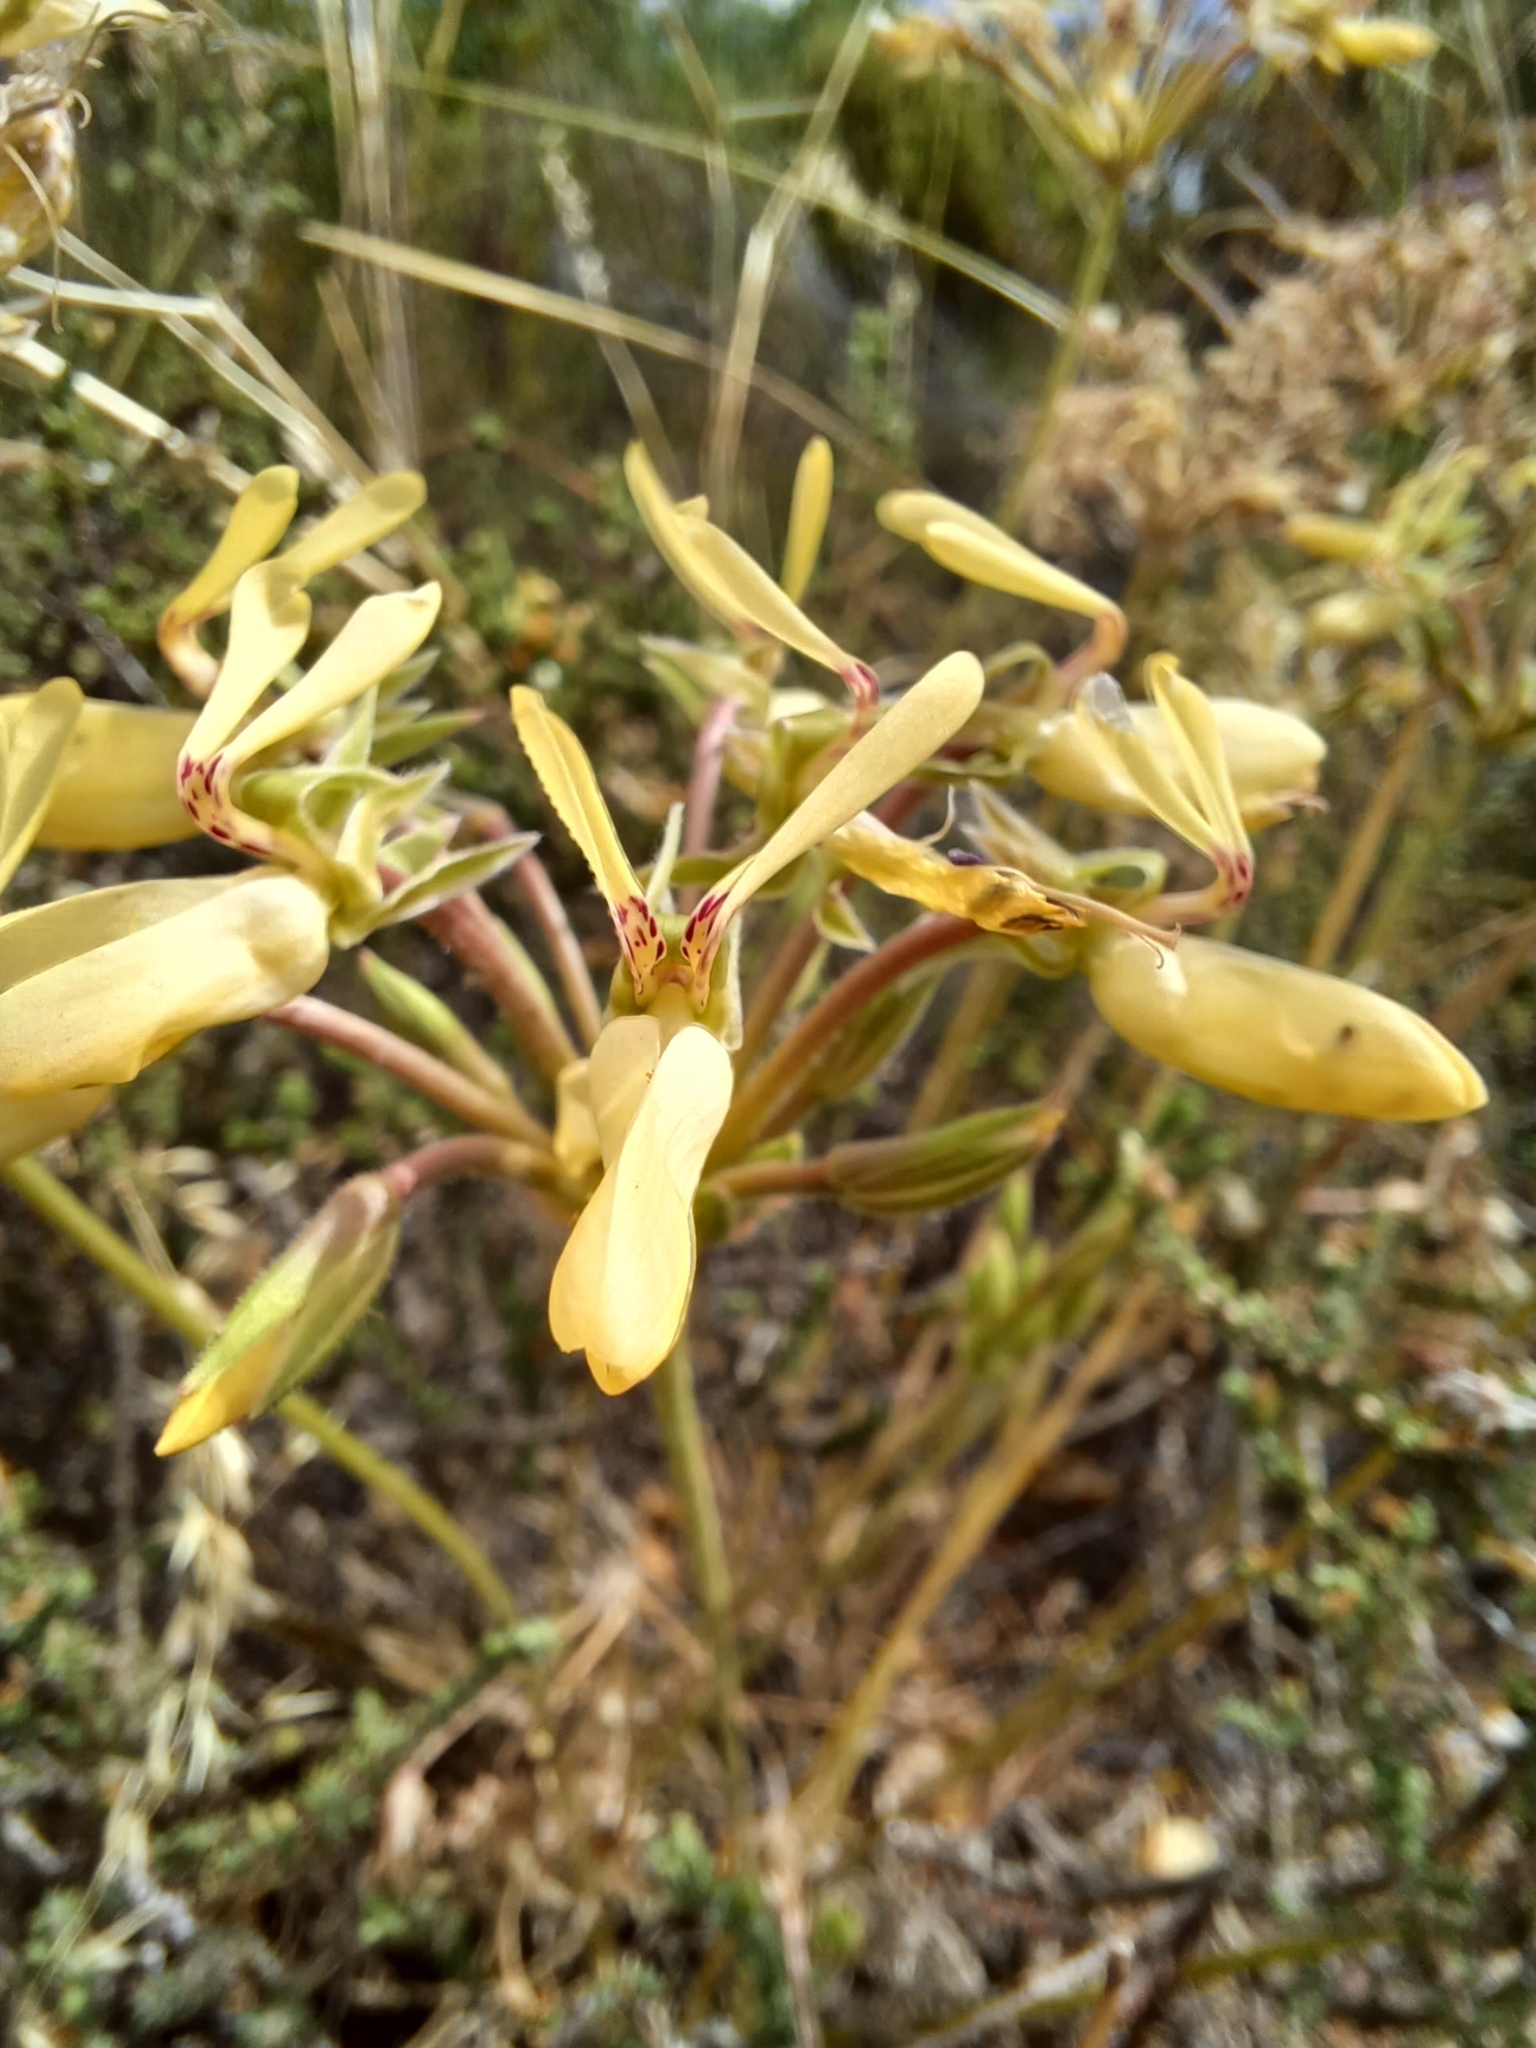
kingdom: Plantae
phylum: Tracheophyta
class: Magnoliopsida
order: Geraniales
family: Geraniaceae
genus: Pelargonium
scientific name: Pelargonium rapaceum
